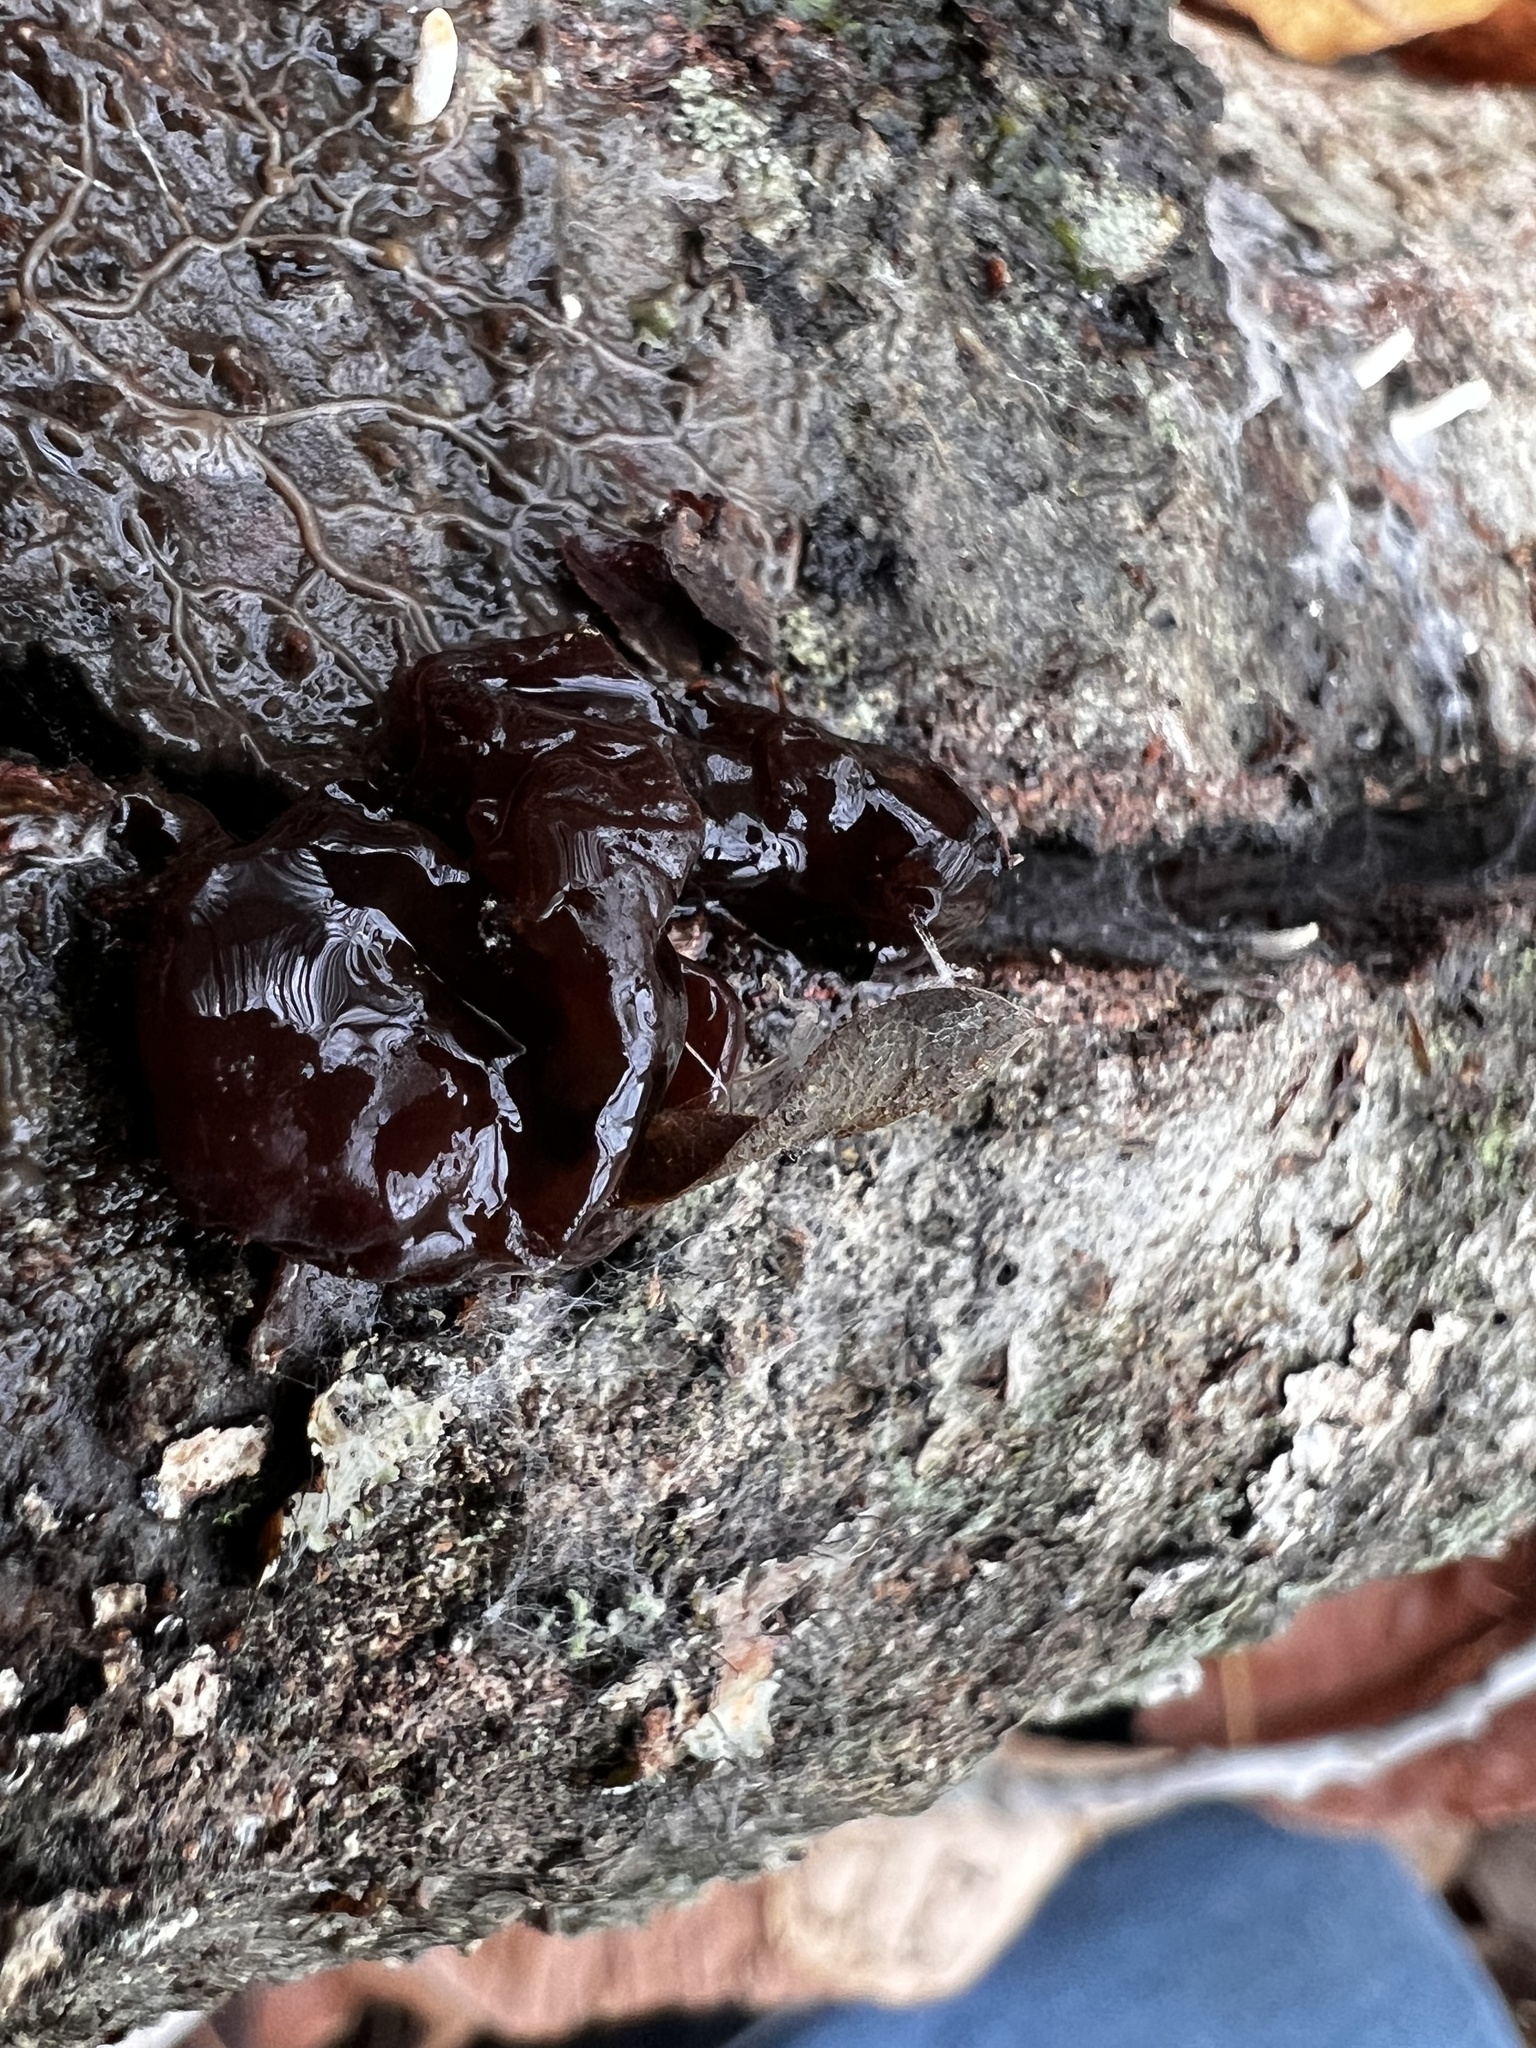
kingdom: Fungi
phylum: Basidiomycota
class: Agaricomycetes
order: Auriculariales
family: Auriculariaceae
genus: Exidia
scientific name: Exidia recisa
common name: Amber jelly
